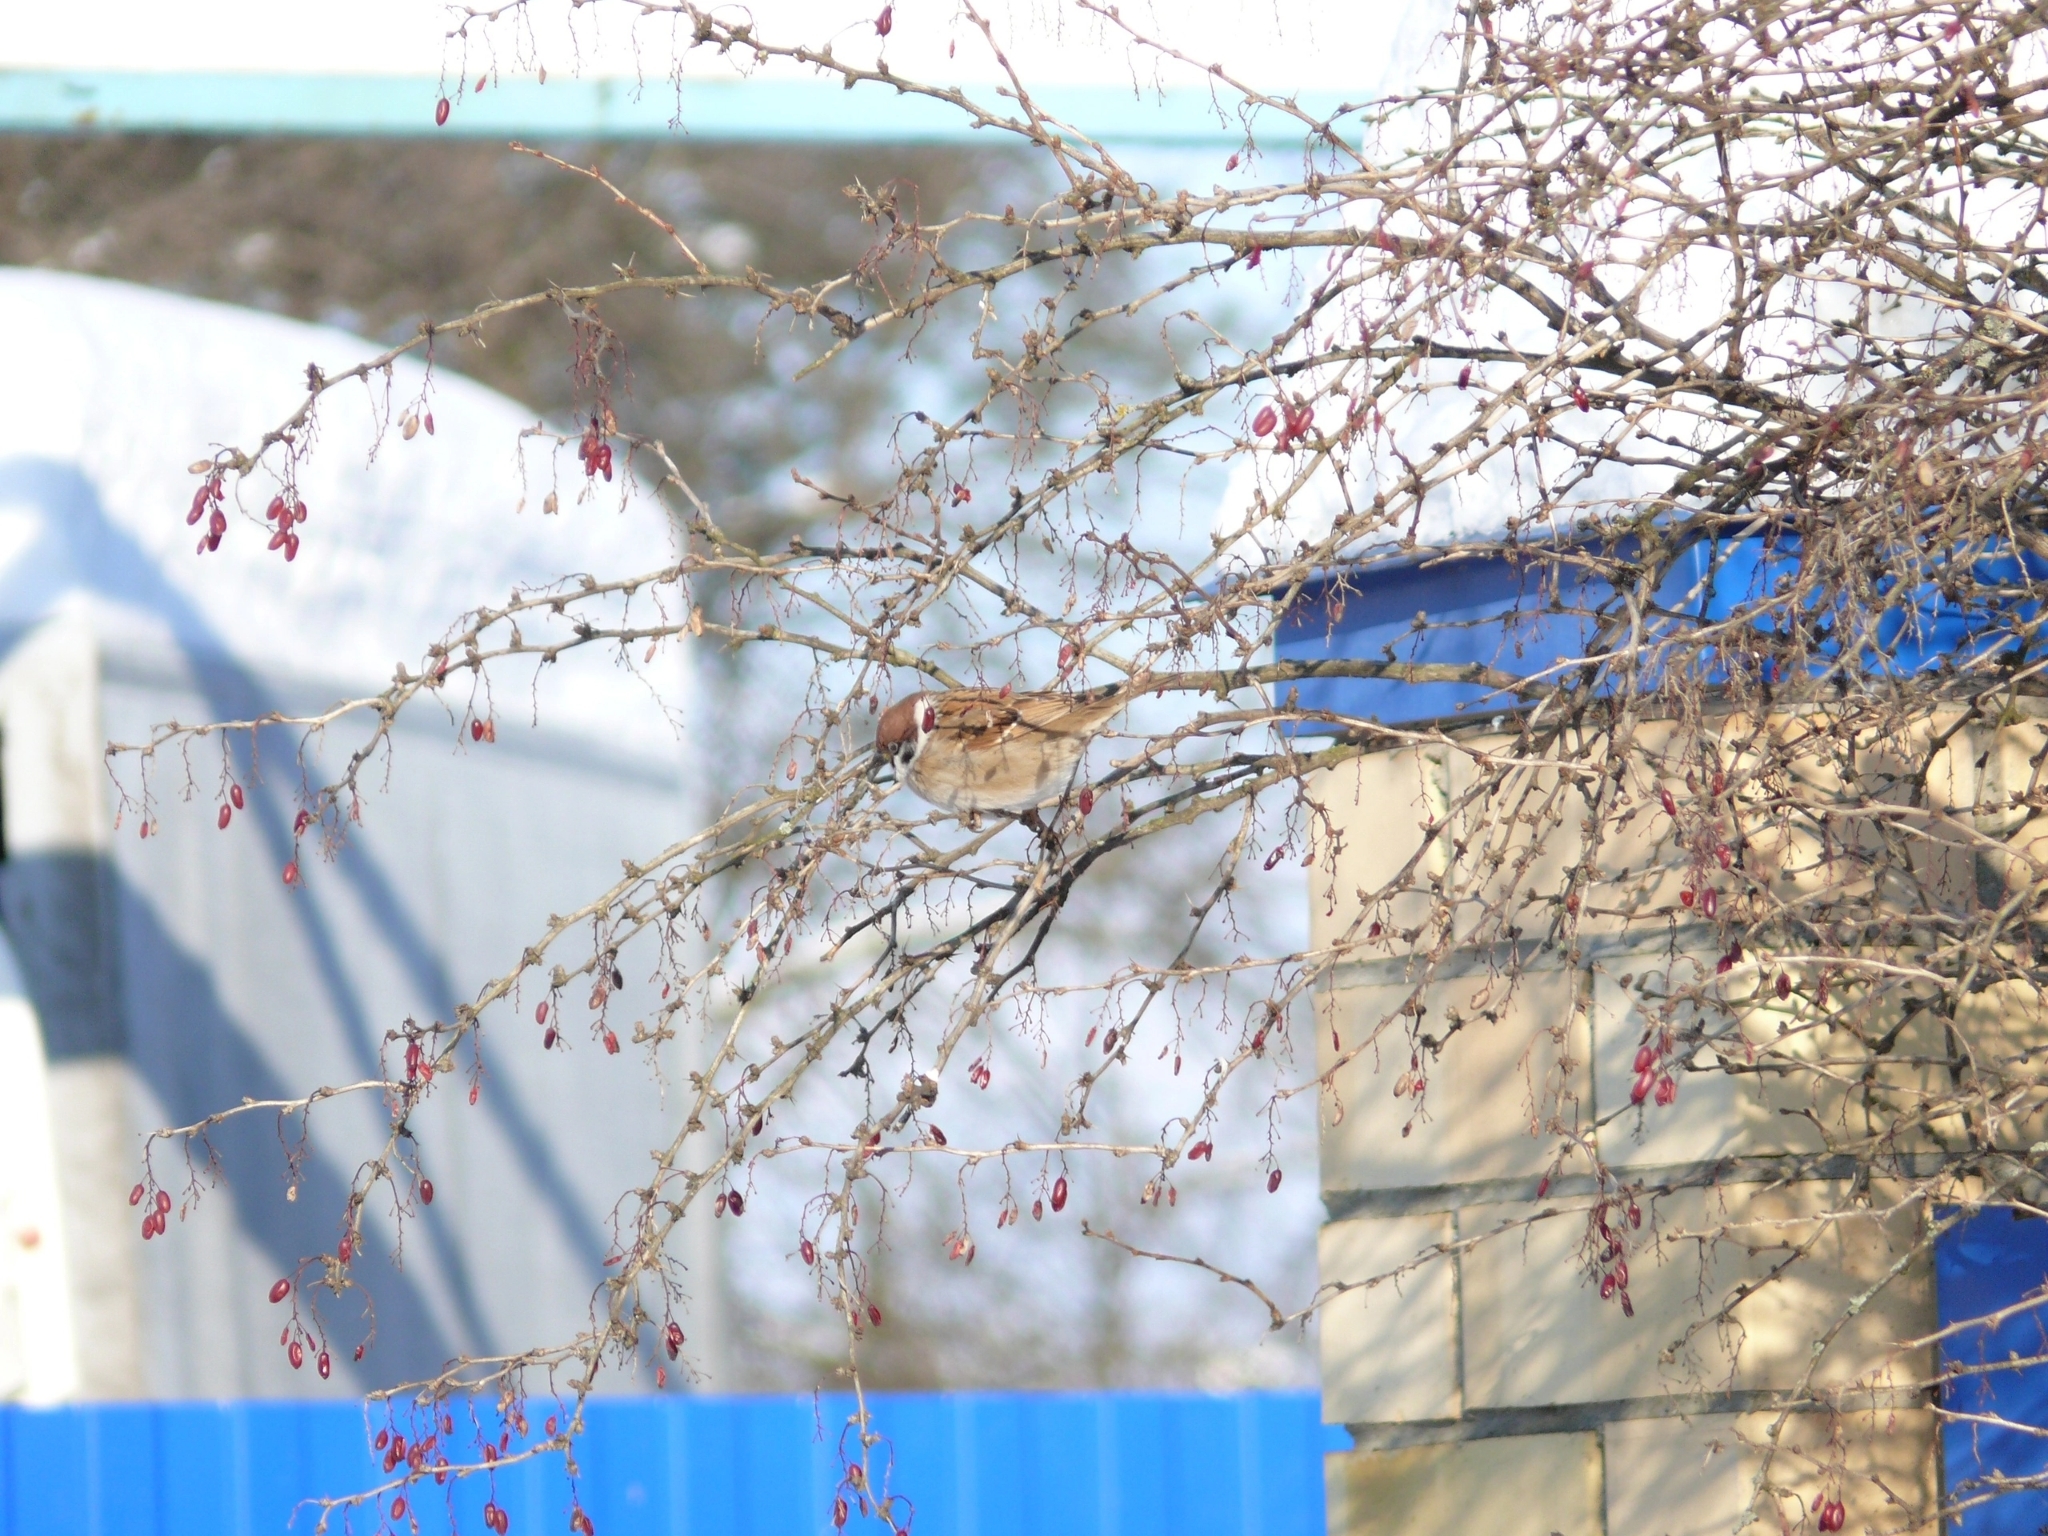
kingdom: Animalia
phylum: Chordata
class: Aves
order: Passeriformes
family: Passeridae
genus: Passer
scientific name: Passer montanus
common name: Eurasian tree sparrow
